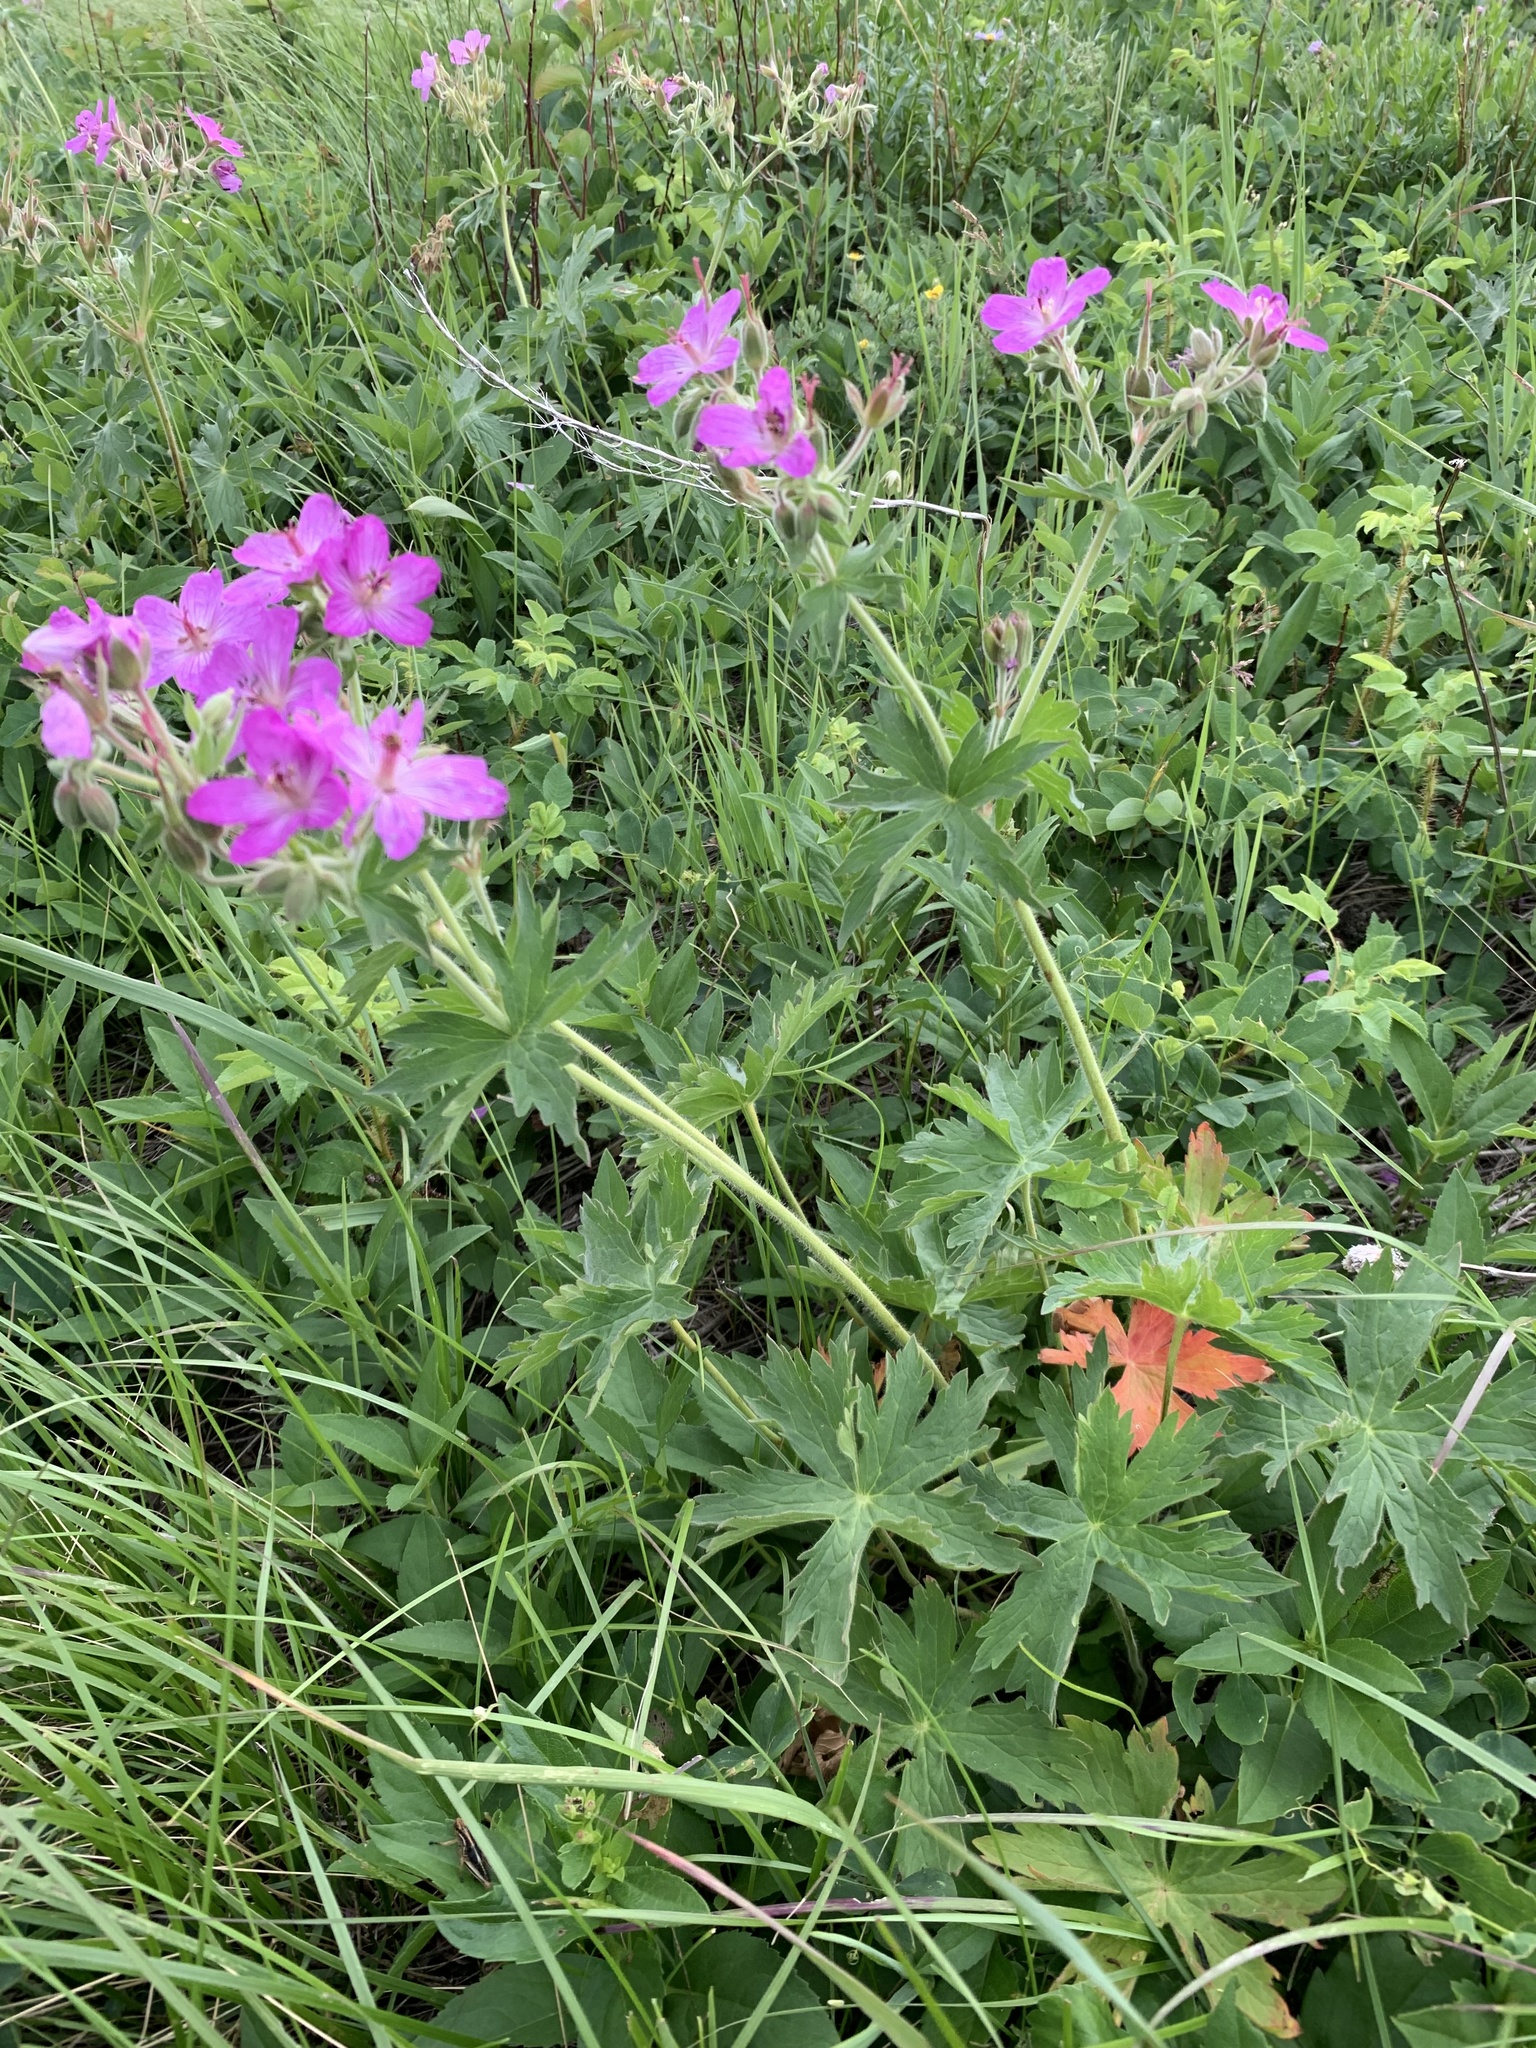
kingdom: Plantae
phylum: Tracheophyta
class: Magnoliopsida
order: Geraniales
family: Geraniaceae
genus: Geranium
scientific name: Geranium viscosissimum
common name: Purple geranium
